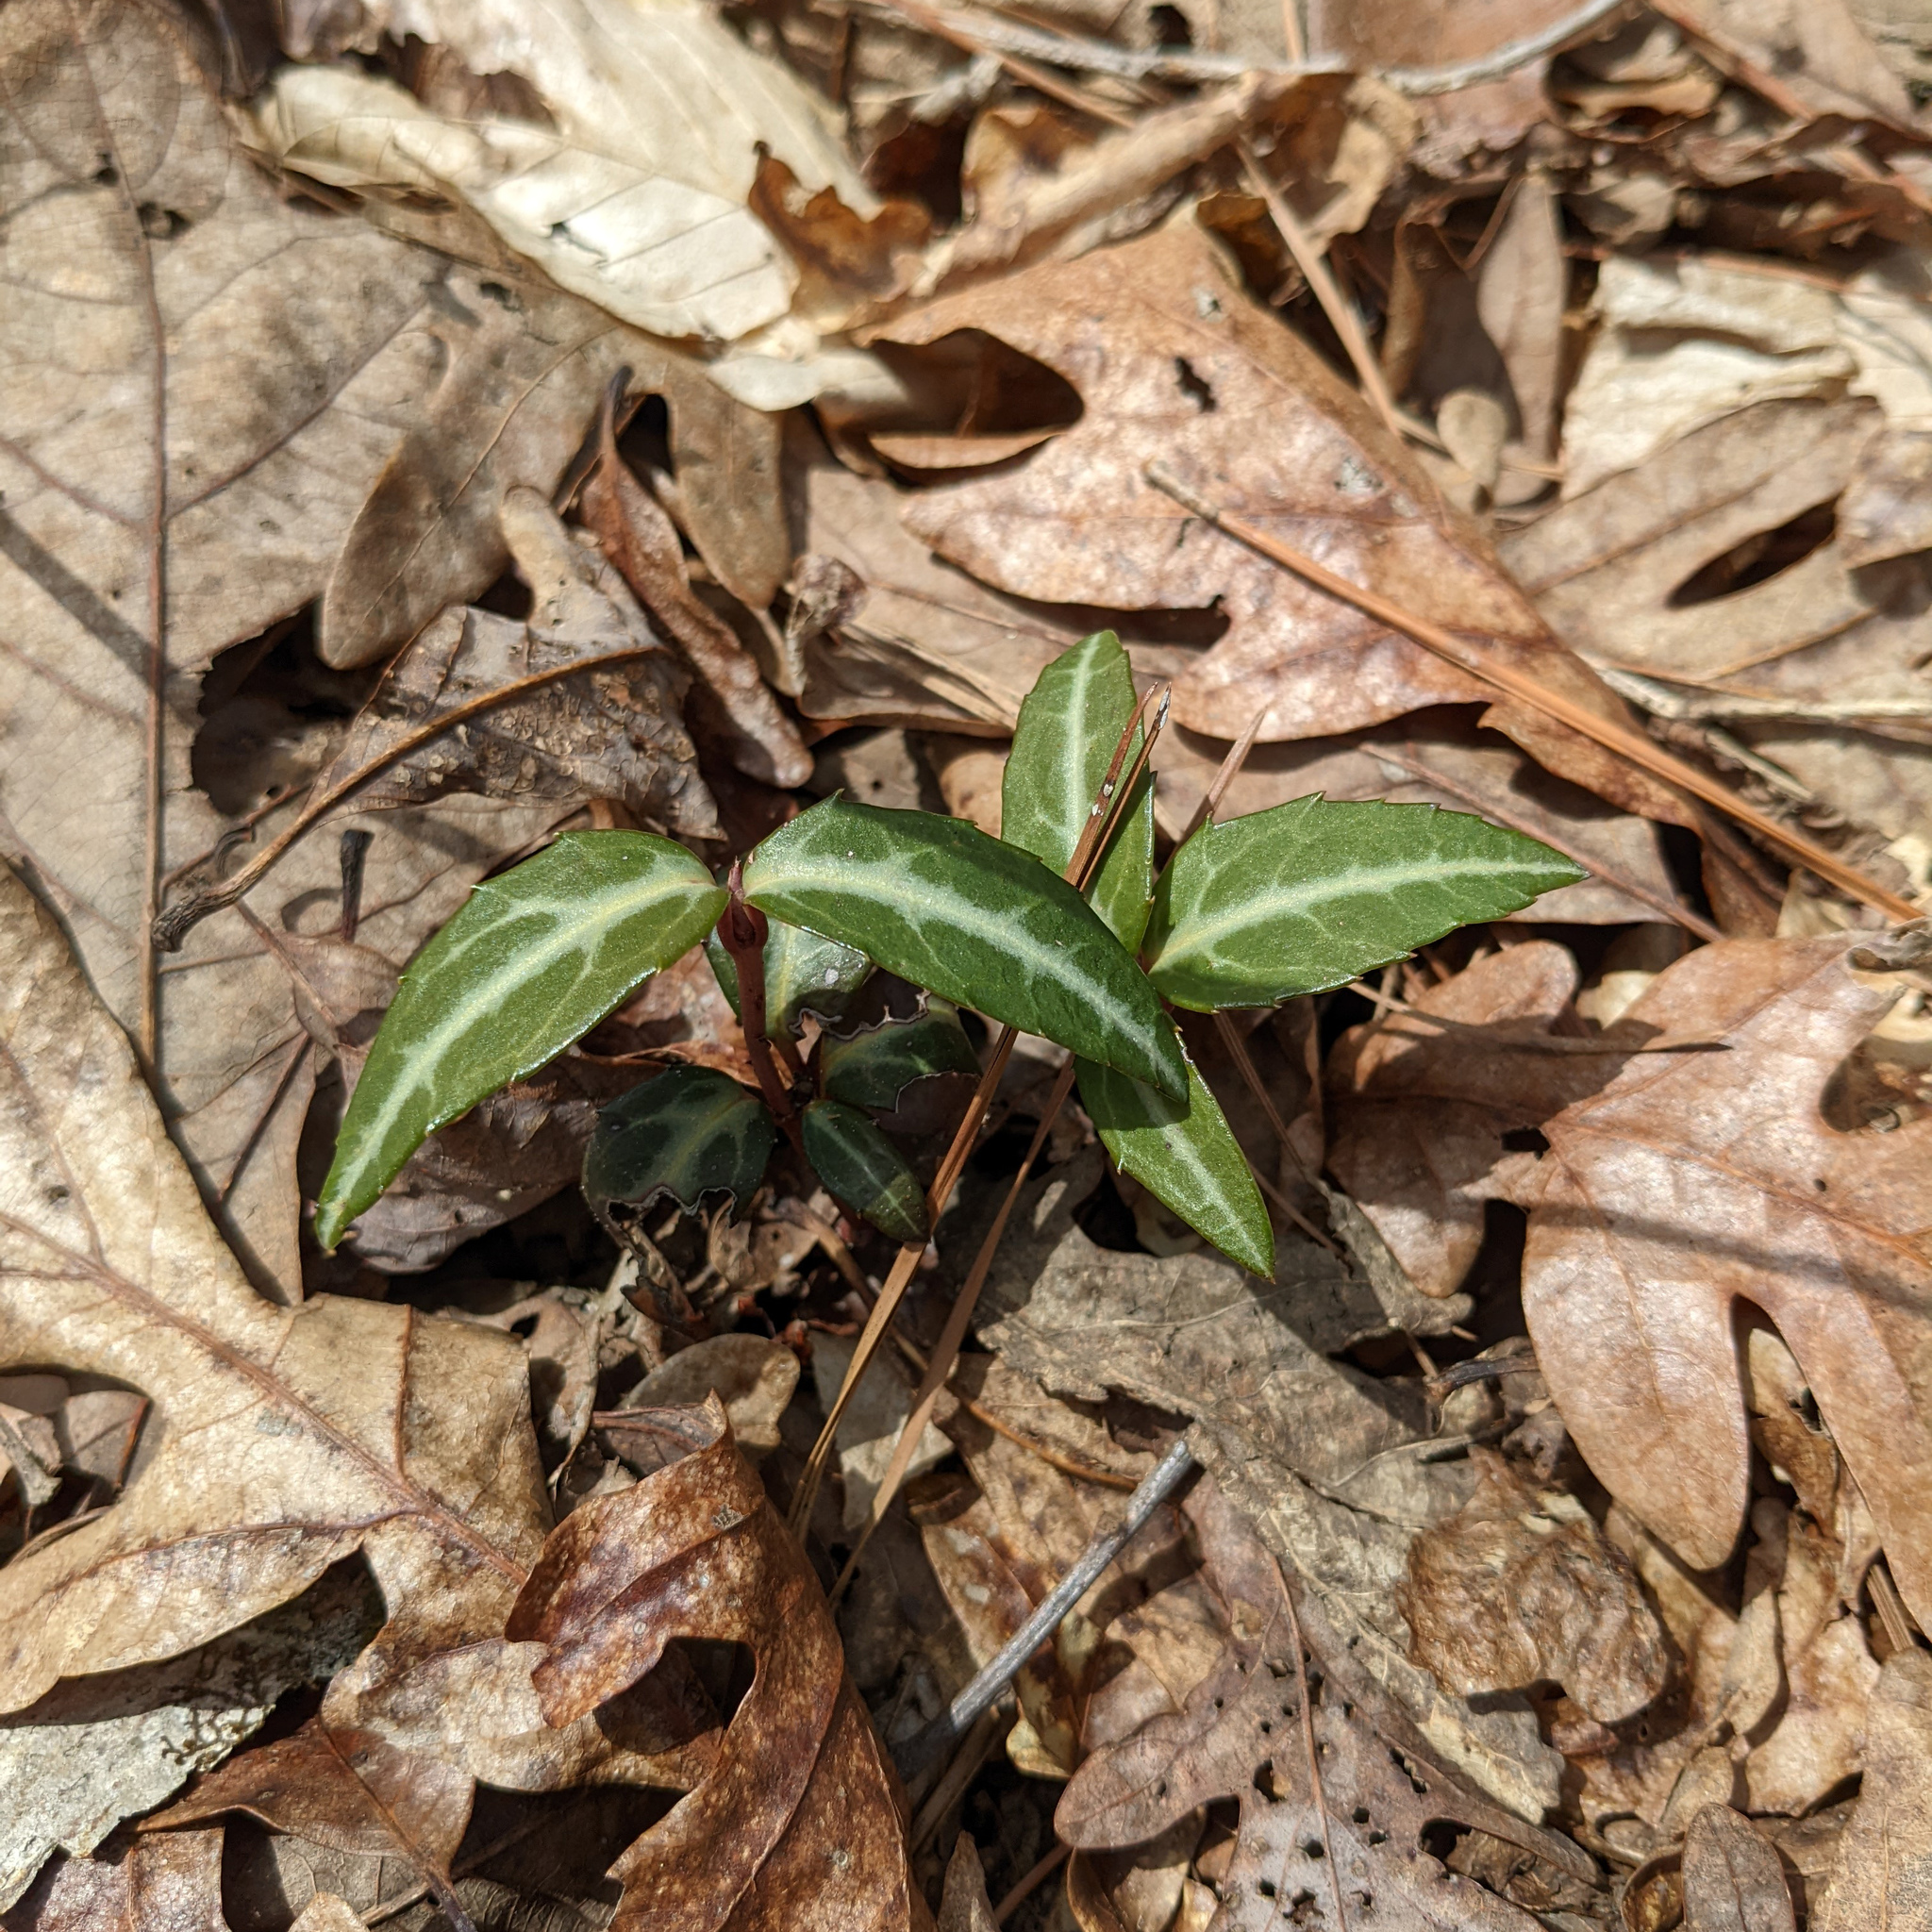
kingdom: Plantae
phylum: Tracheophyta
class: Magnoliopsida
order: Ericales
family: Ericaceae
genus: Chimaphila
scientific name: Chimaphila maculata
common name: Spotted pipsissewa
